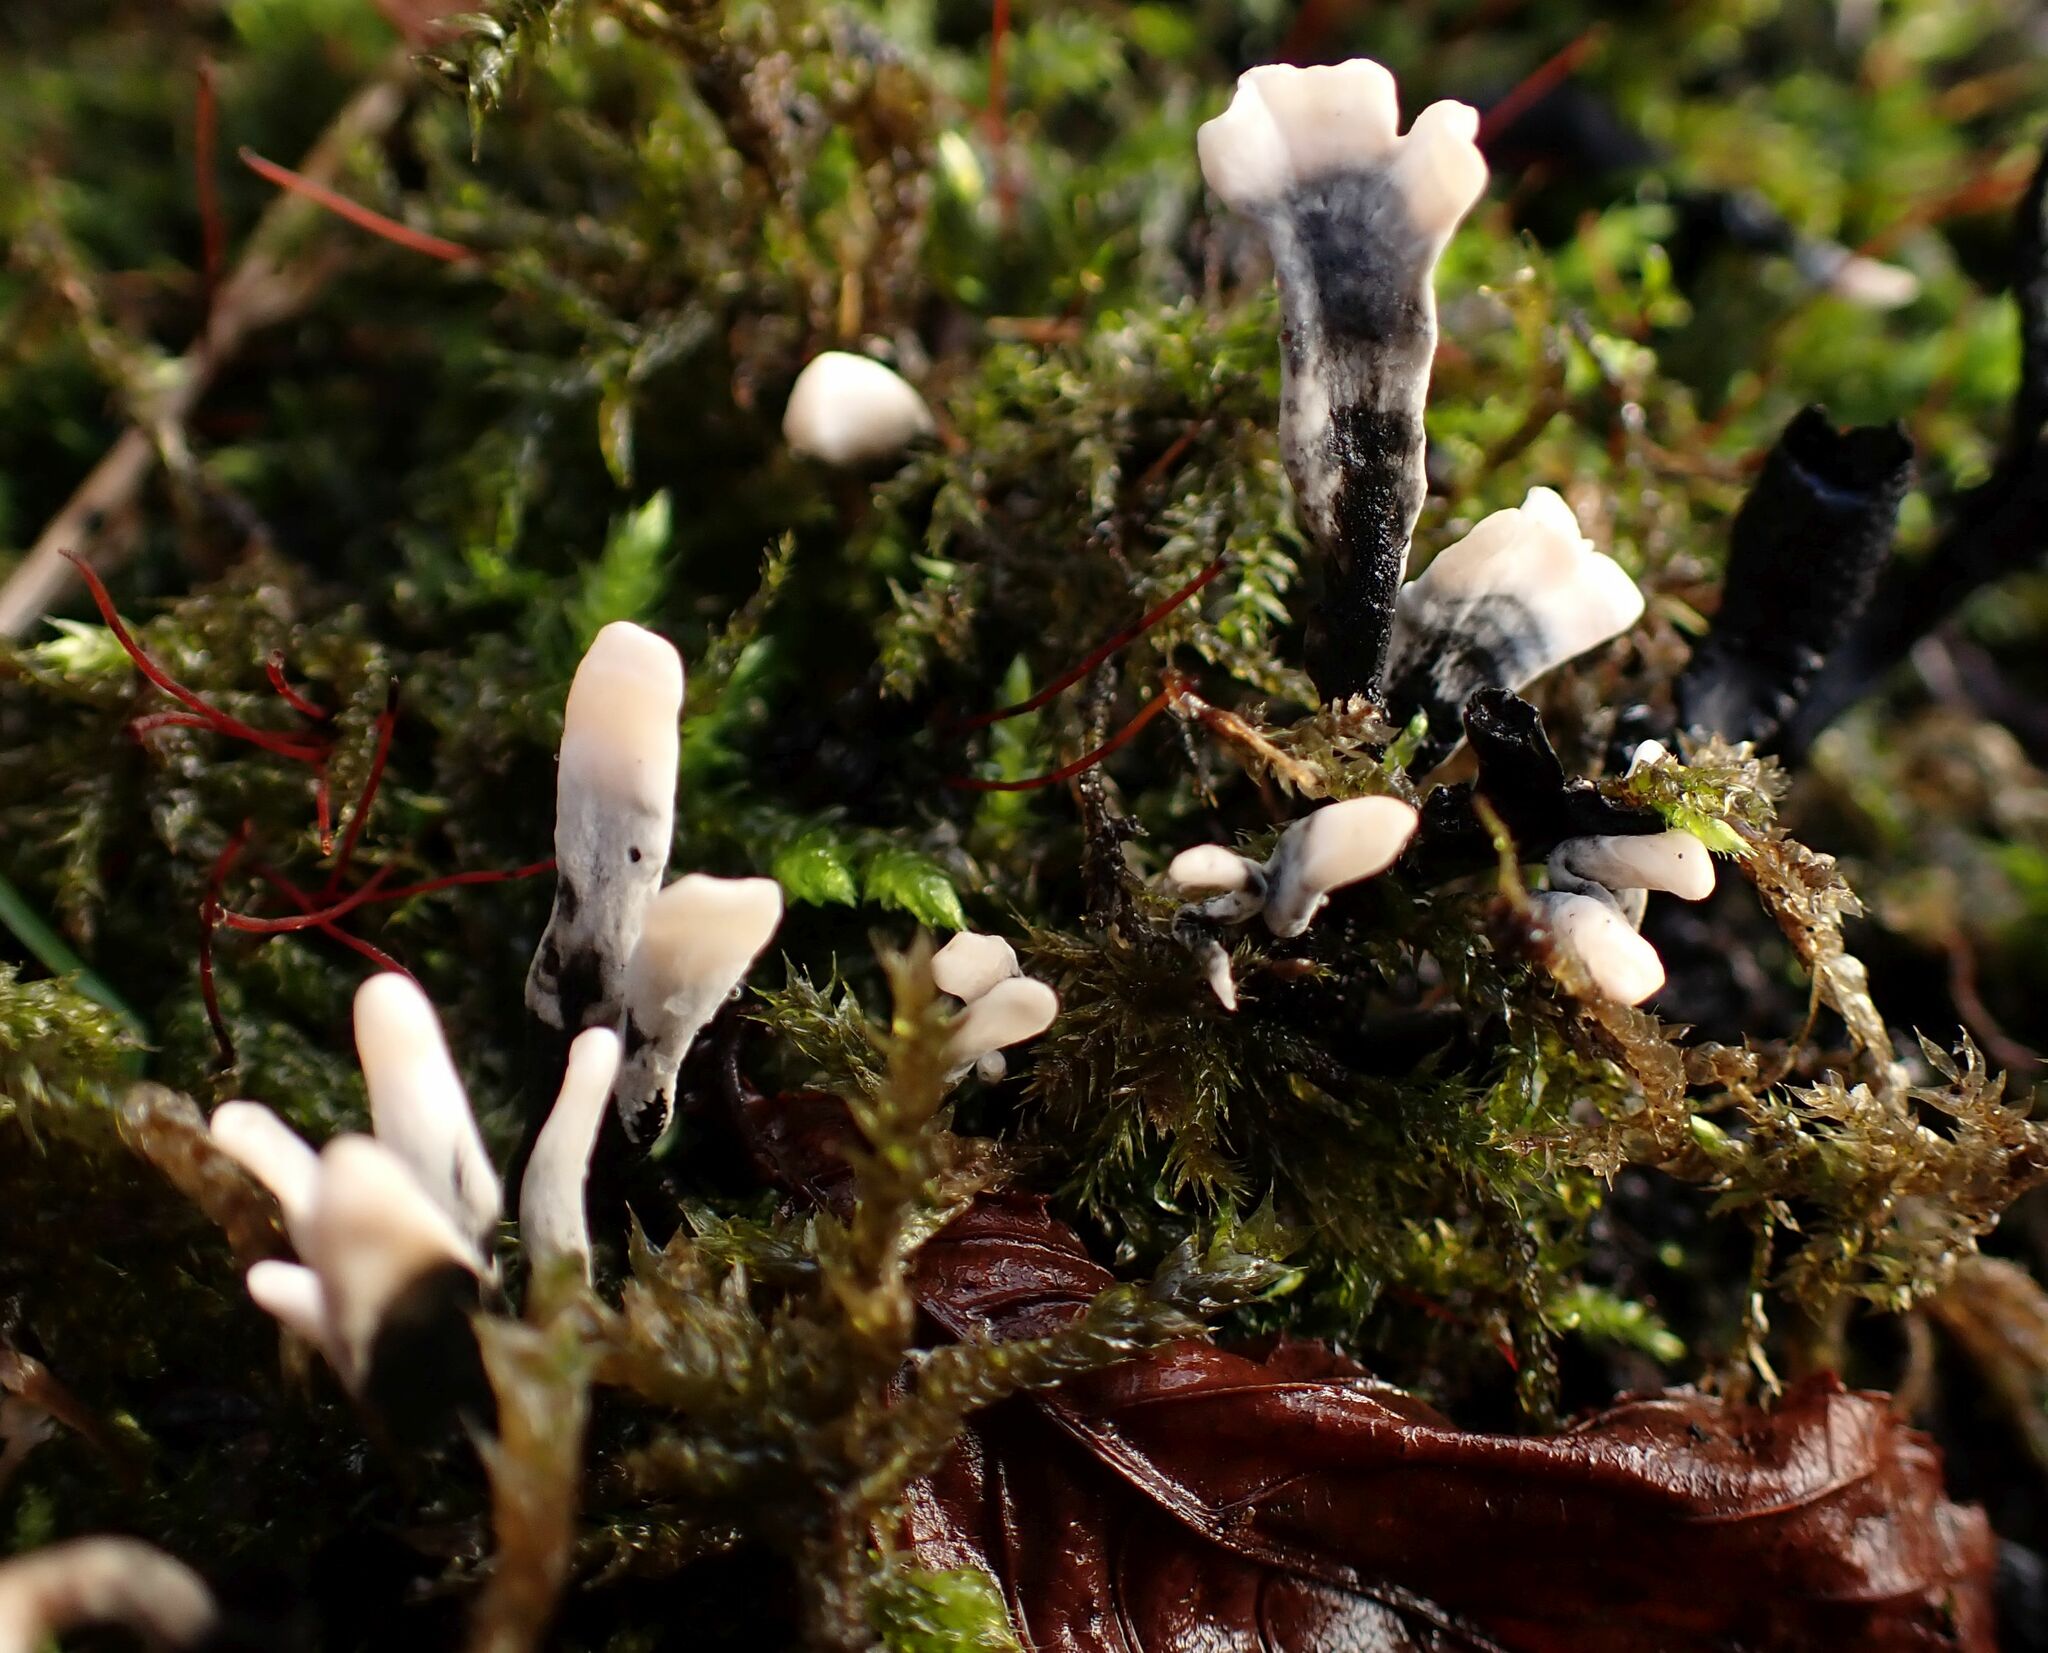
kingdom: Fungi
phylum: Ascomycota
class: Sordariomycetes
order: Xylariales
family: Xylariaceae
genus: Xylaria
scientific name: Xylaria hypoxylon
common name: Candle-snuff fungus
